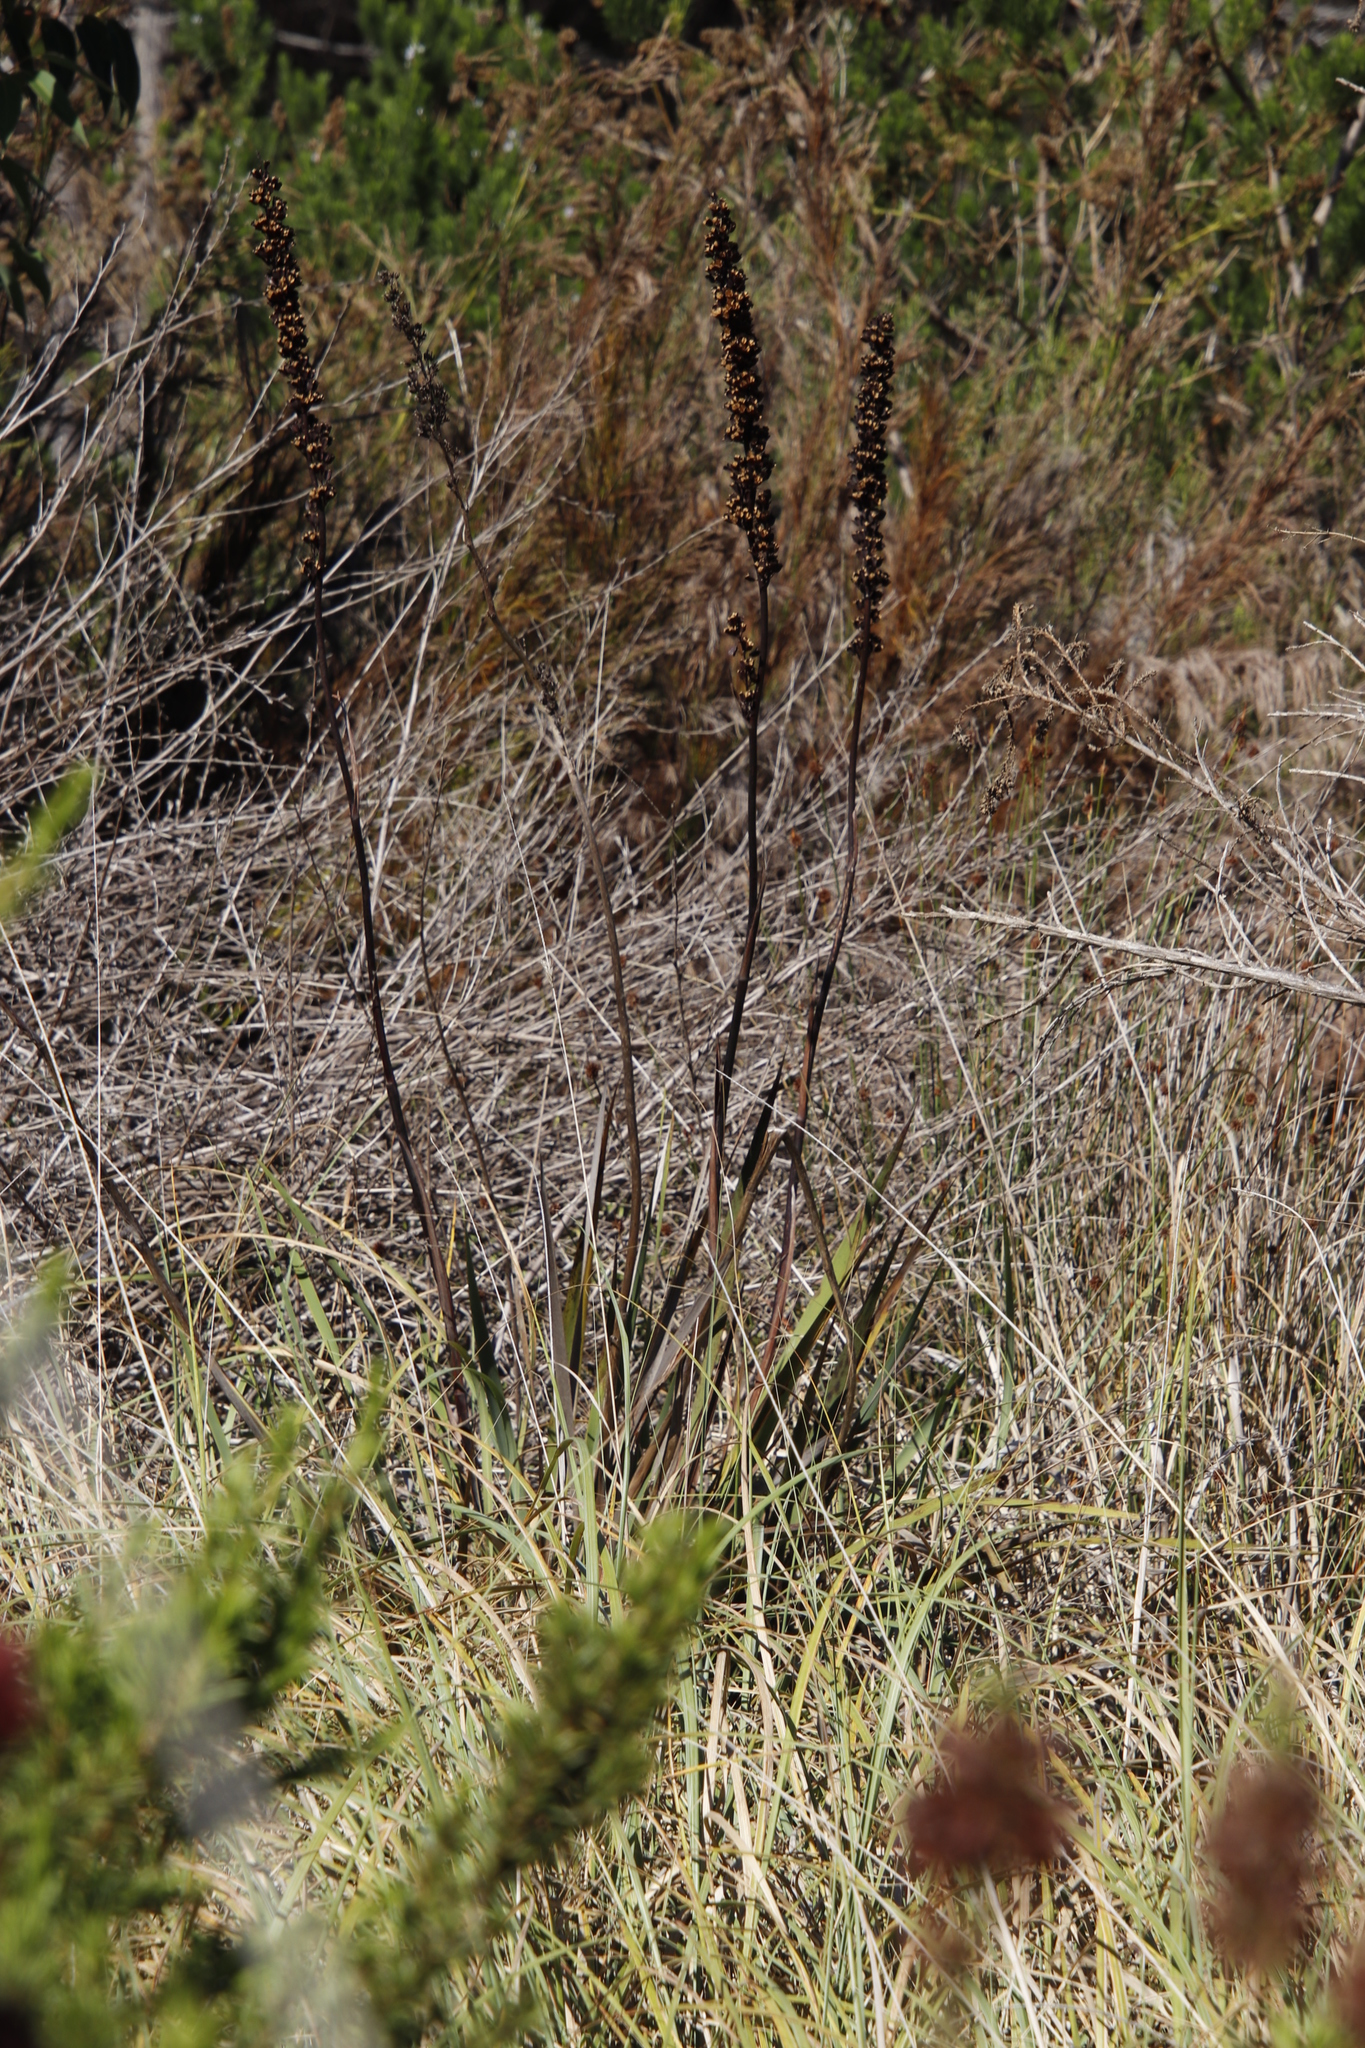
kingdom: Plantae
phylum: Tracheophyta
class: Liliopsida
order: Asparagales
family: Iridaceae
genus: Aristea
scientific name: Aristea capitata
